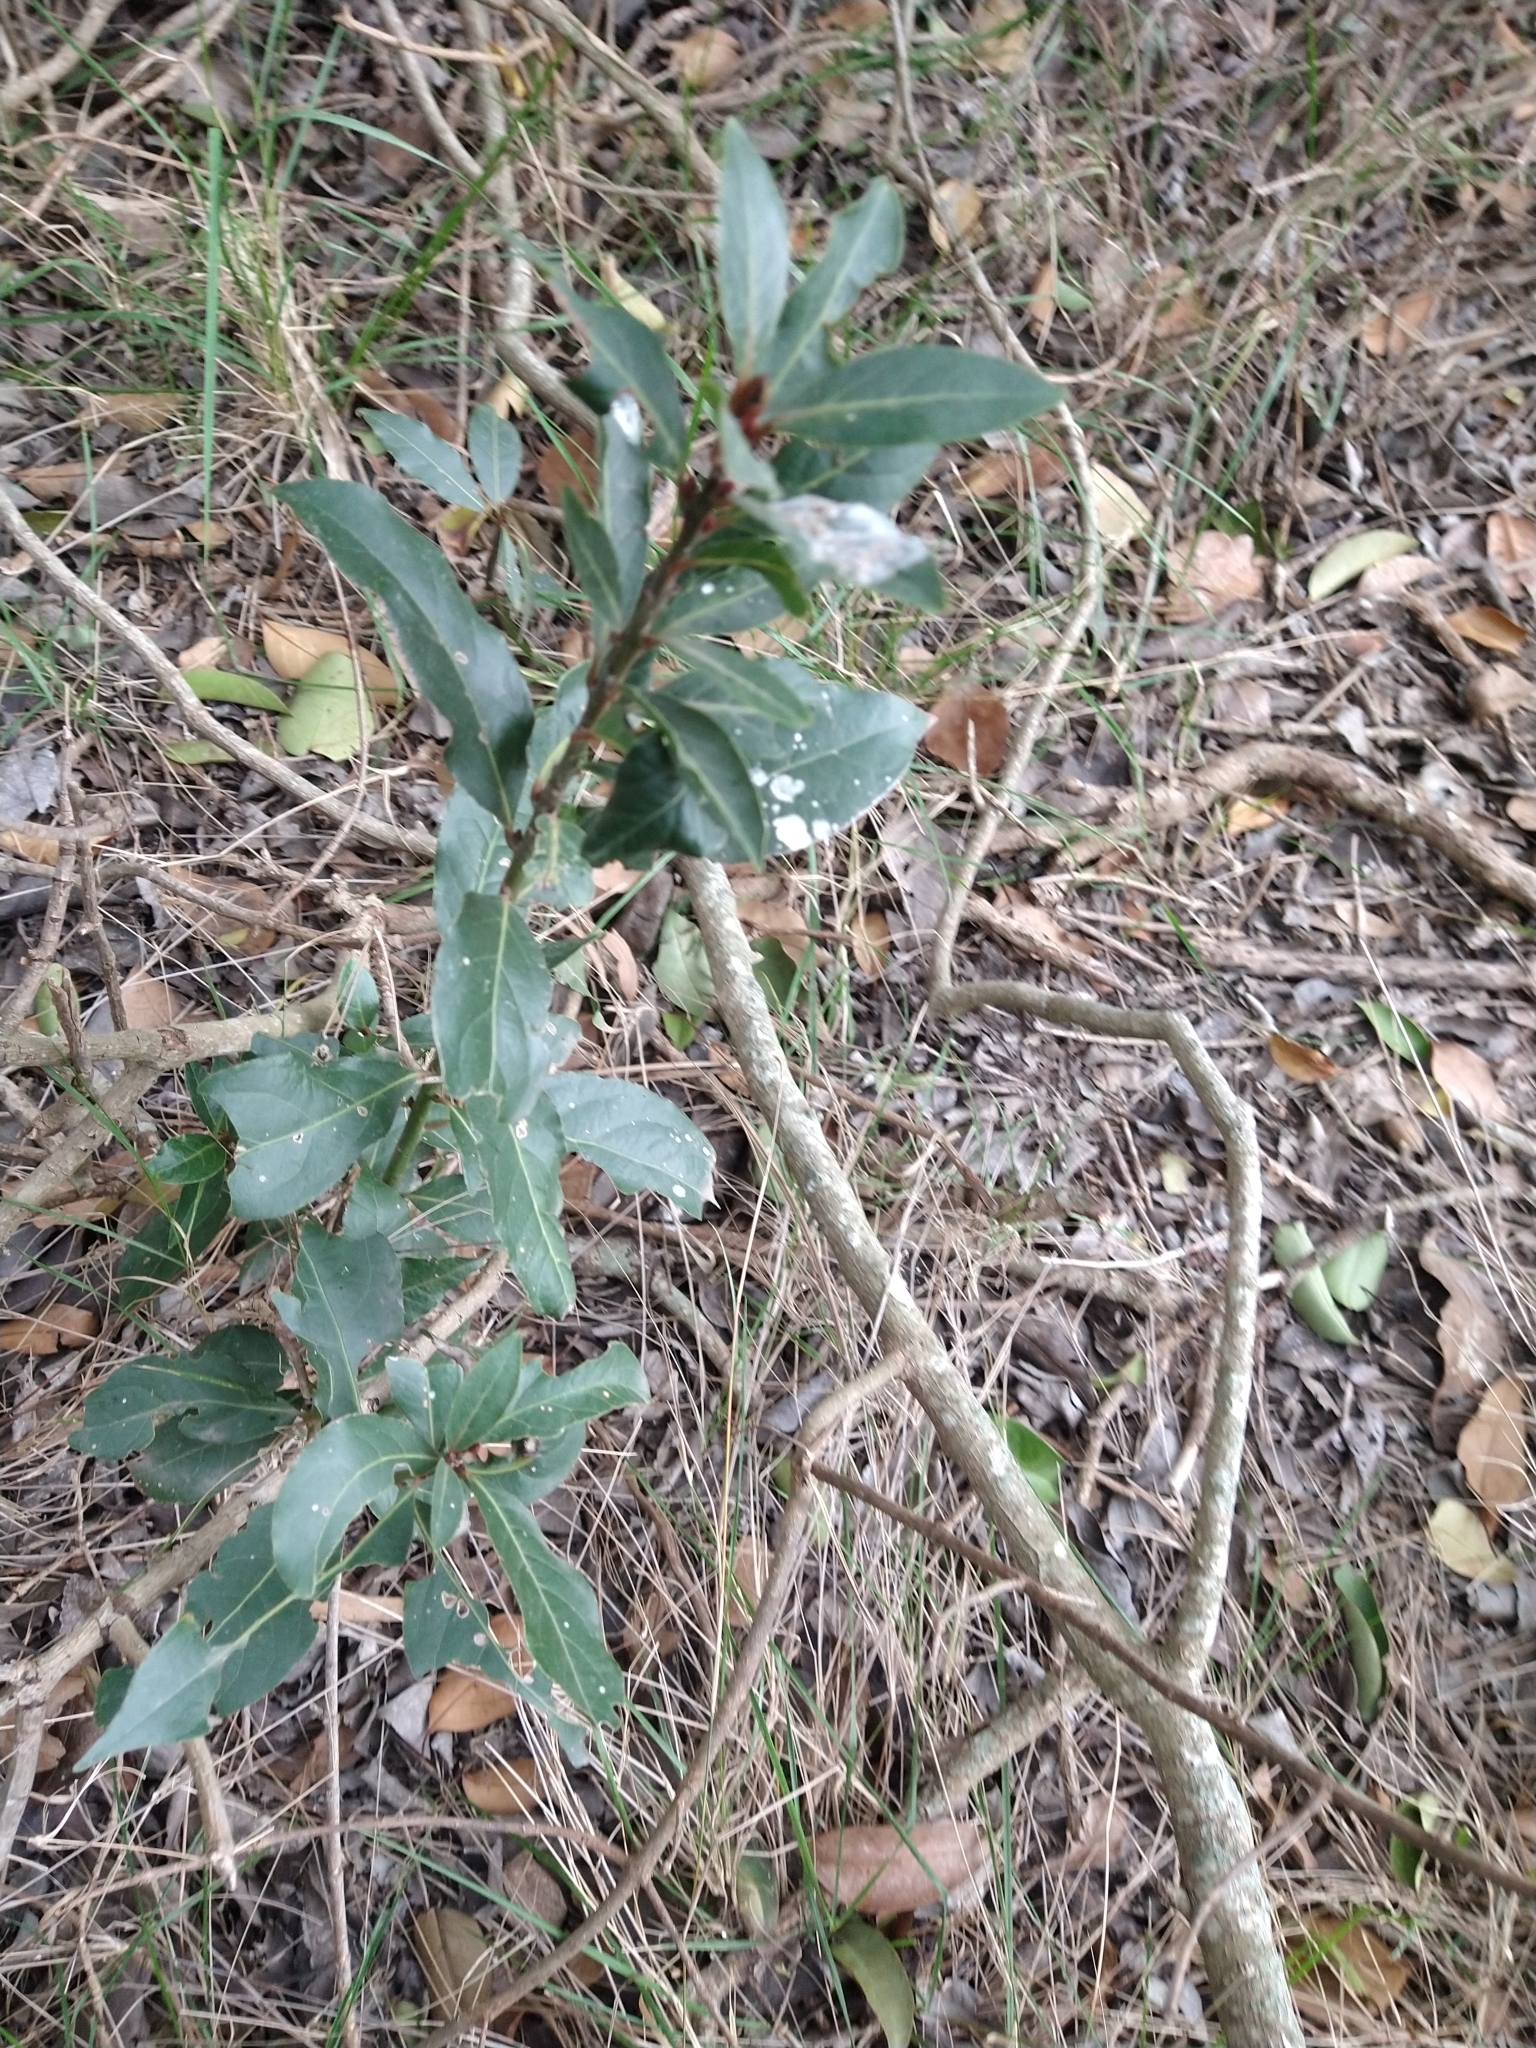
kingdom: Plantae
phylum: Tracheophyta
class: Magnoliopsida
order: Laurales
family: Lauraceae
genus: Laurus
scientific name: Laurus nobilis
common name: Bay
